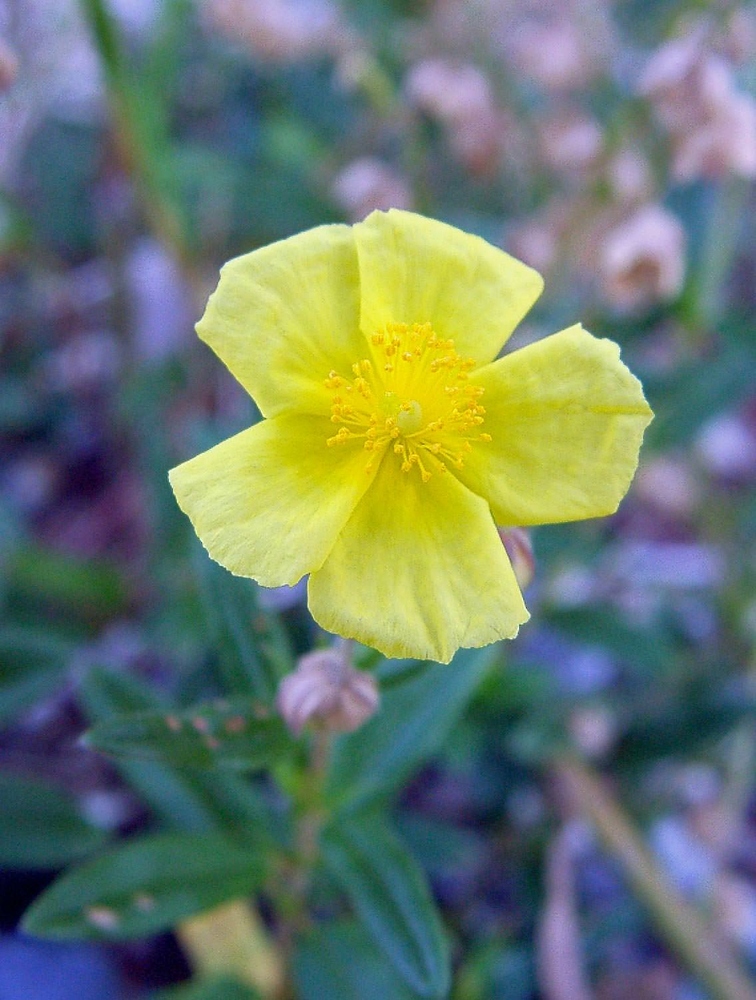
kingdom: Plantae
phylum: Tracheophyta
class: Magnoliopsida
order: Malvales
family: Cistaceae
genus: Helianthemum
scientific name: Helianthemum nummularium
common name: Common rock-rose
